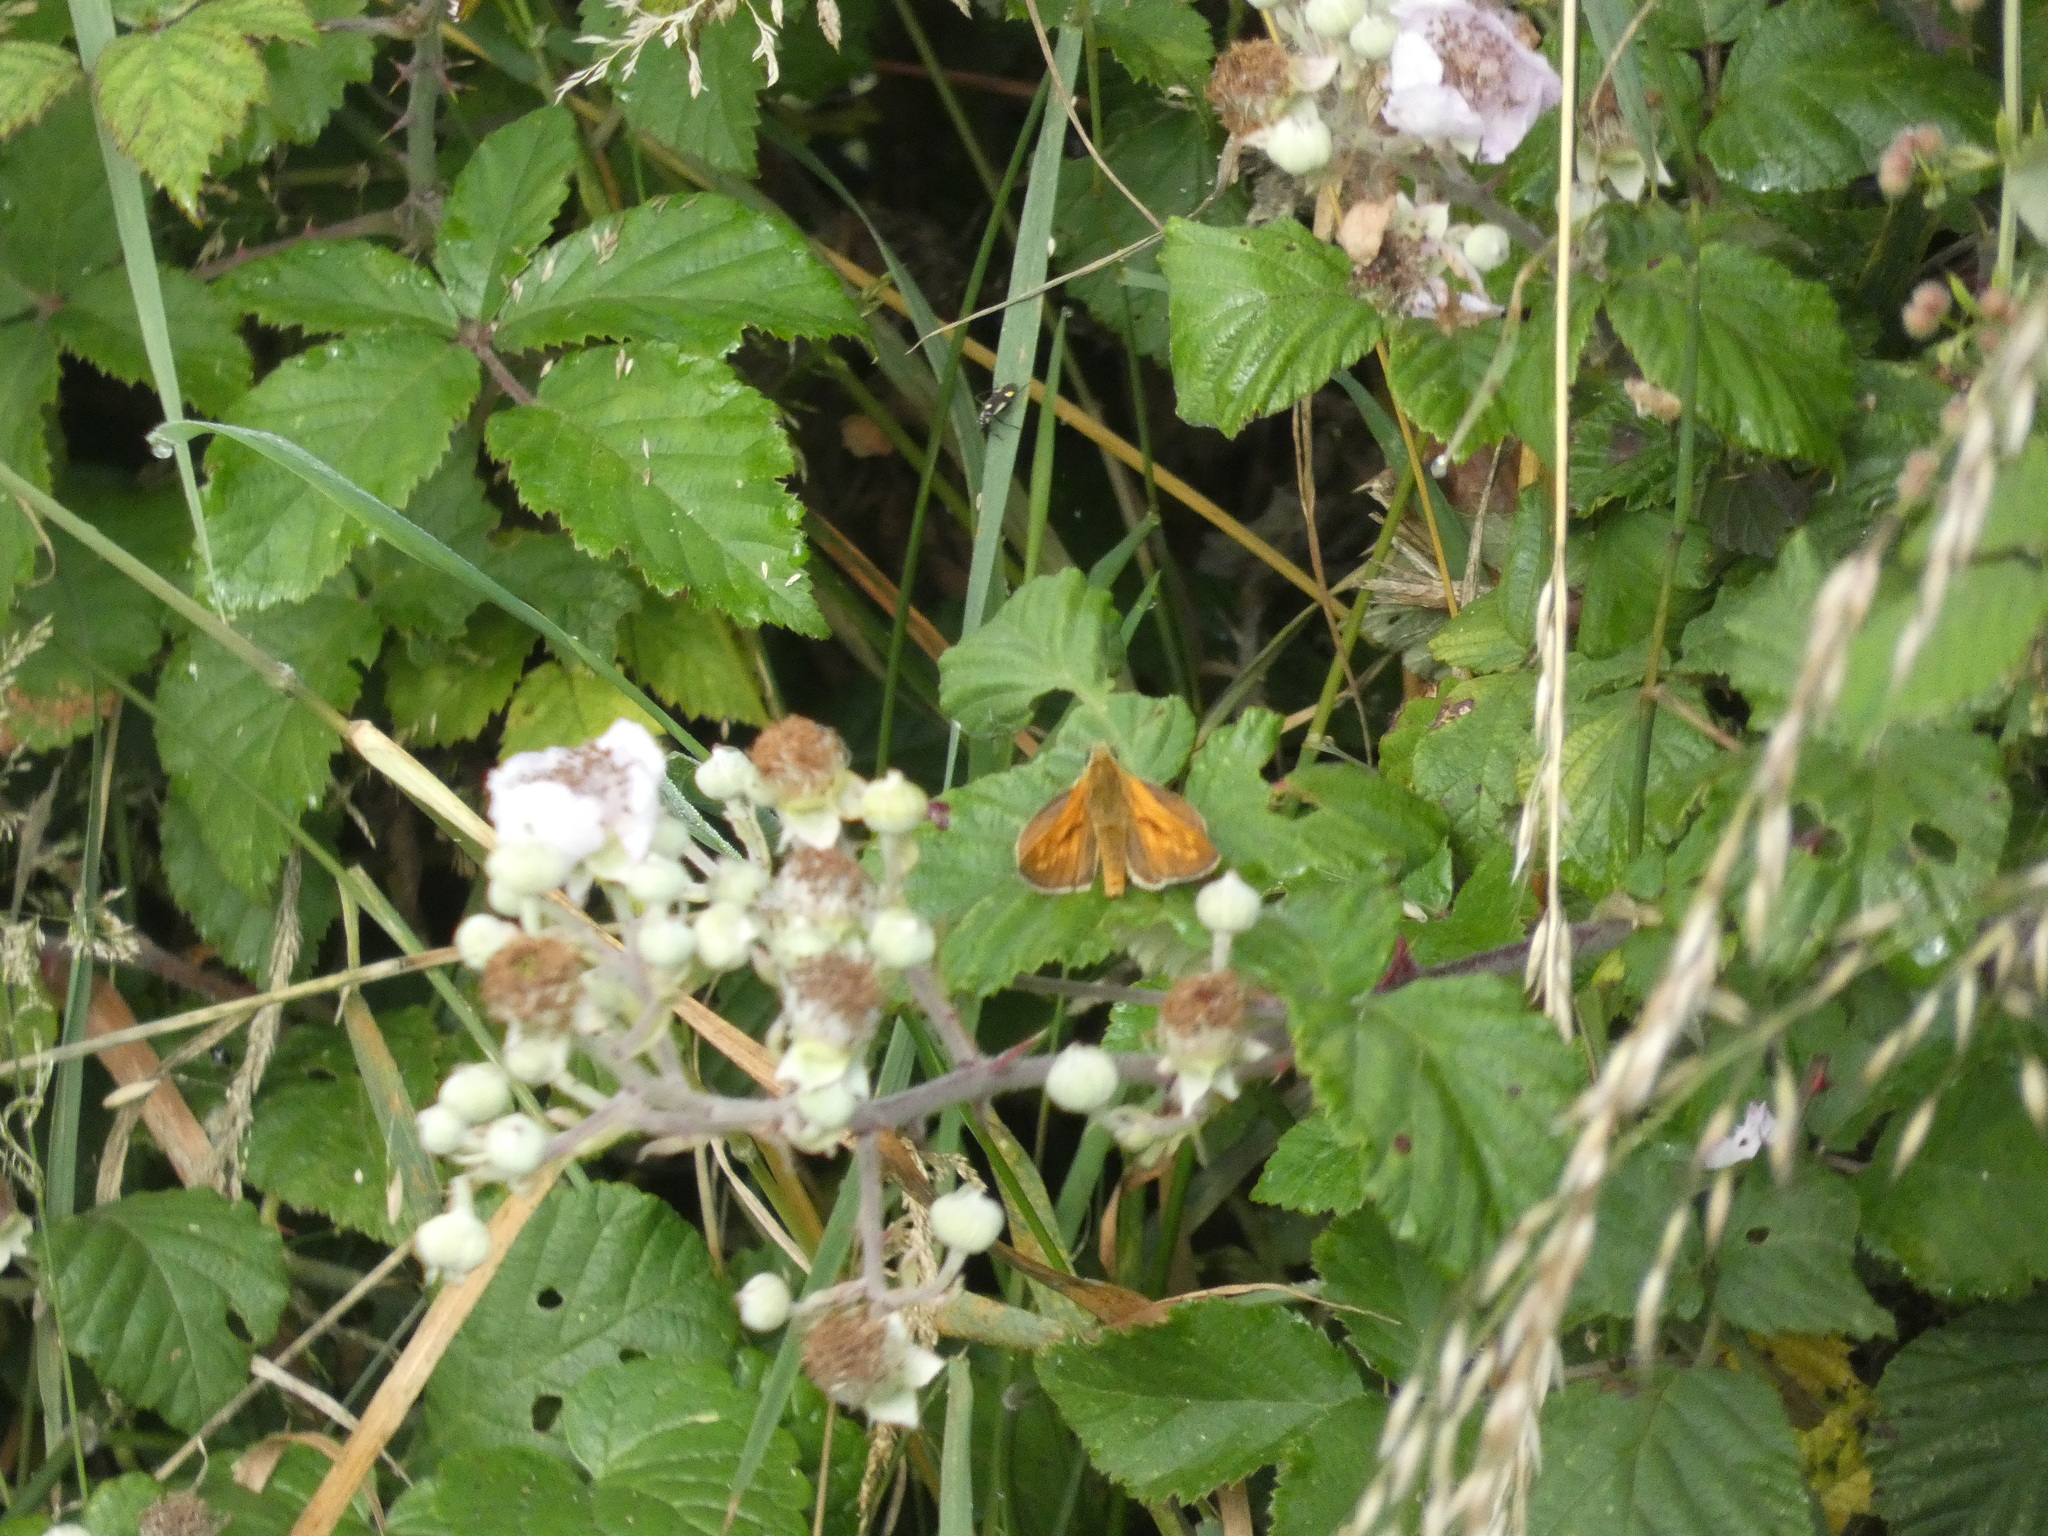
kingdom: Animalia
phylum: Arthropoda
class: Insecta
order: Lepidoptera
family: Hesperiidae
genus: Ochlodes
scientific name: Ochlodes venata
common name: Large skipper
